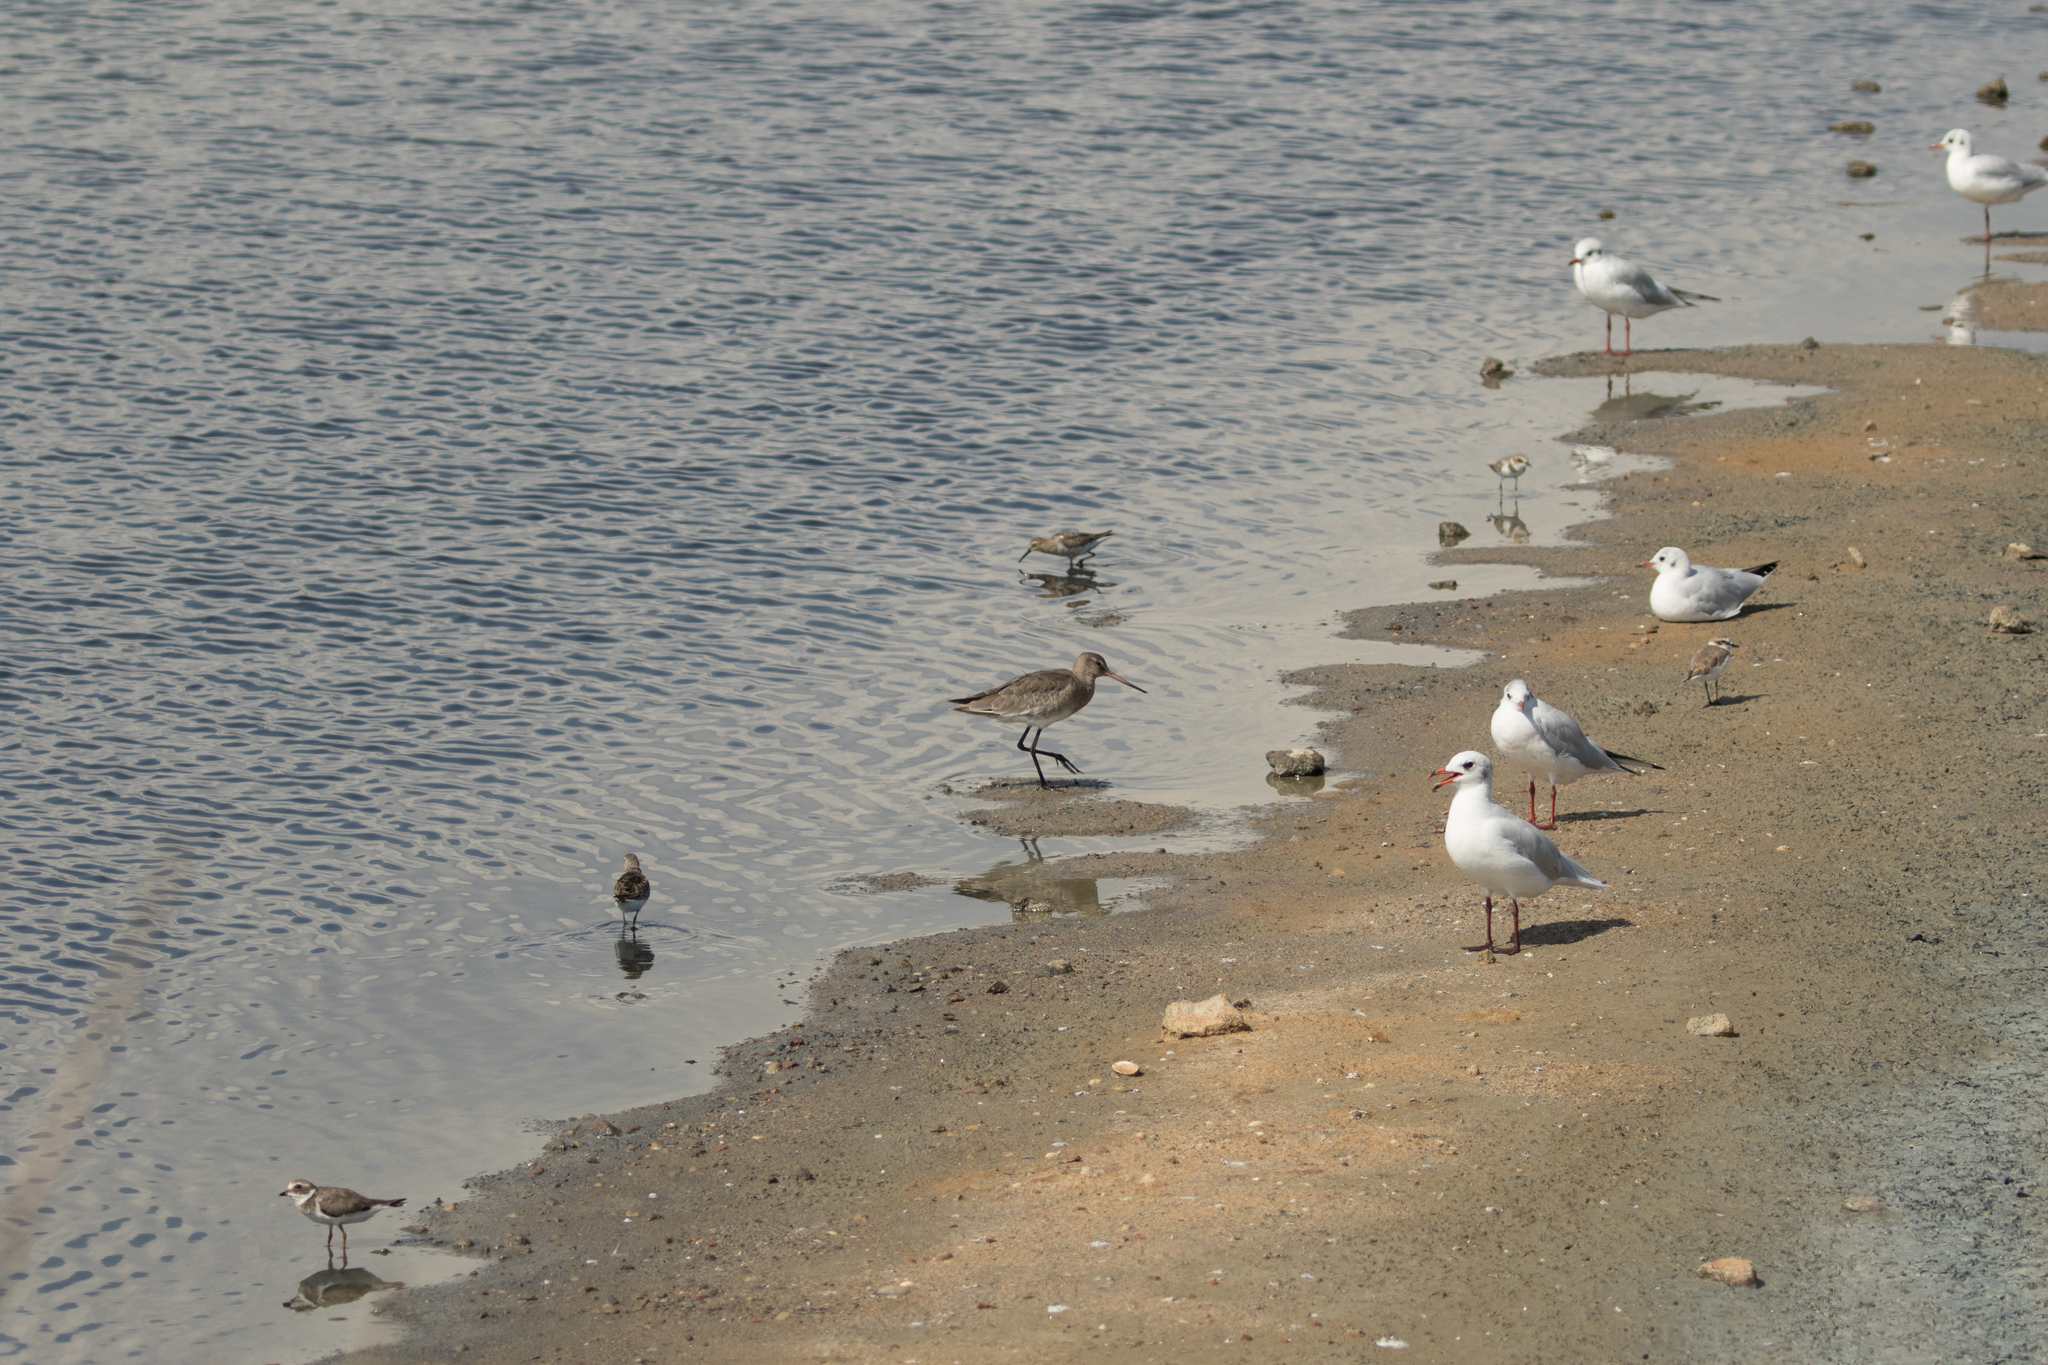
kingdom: Animalia
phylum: Chordata
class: Aves
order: Charadriiformes
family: Scolopacidae
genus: Limosa
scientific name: Limosa limosa
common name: Black-tailed godwit
